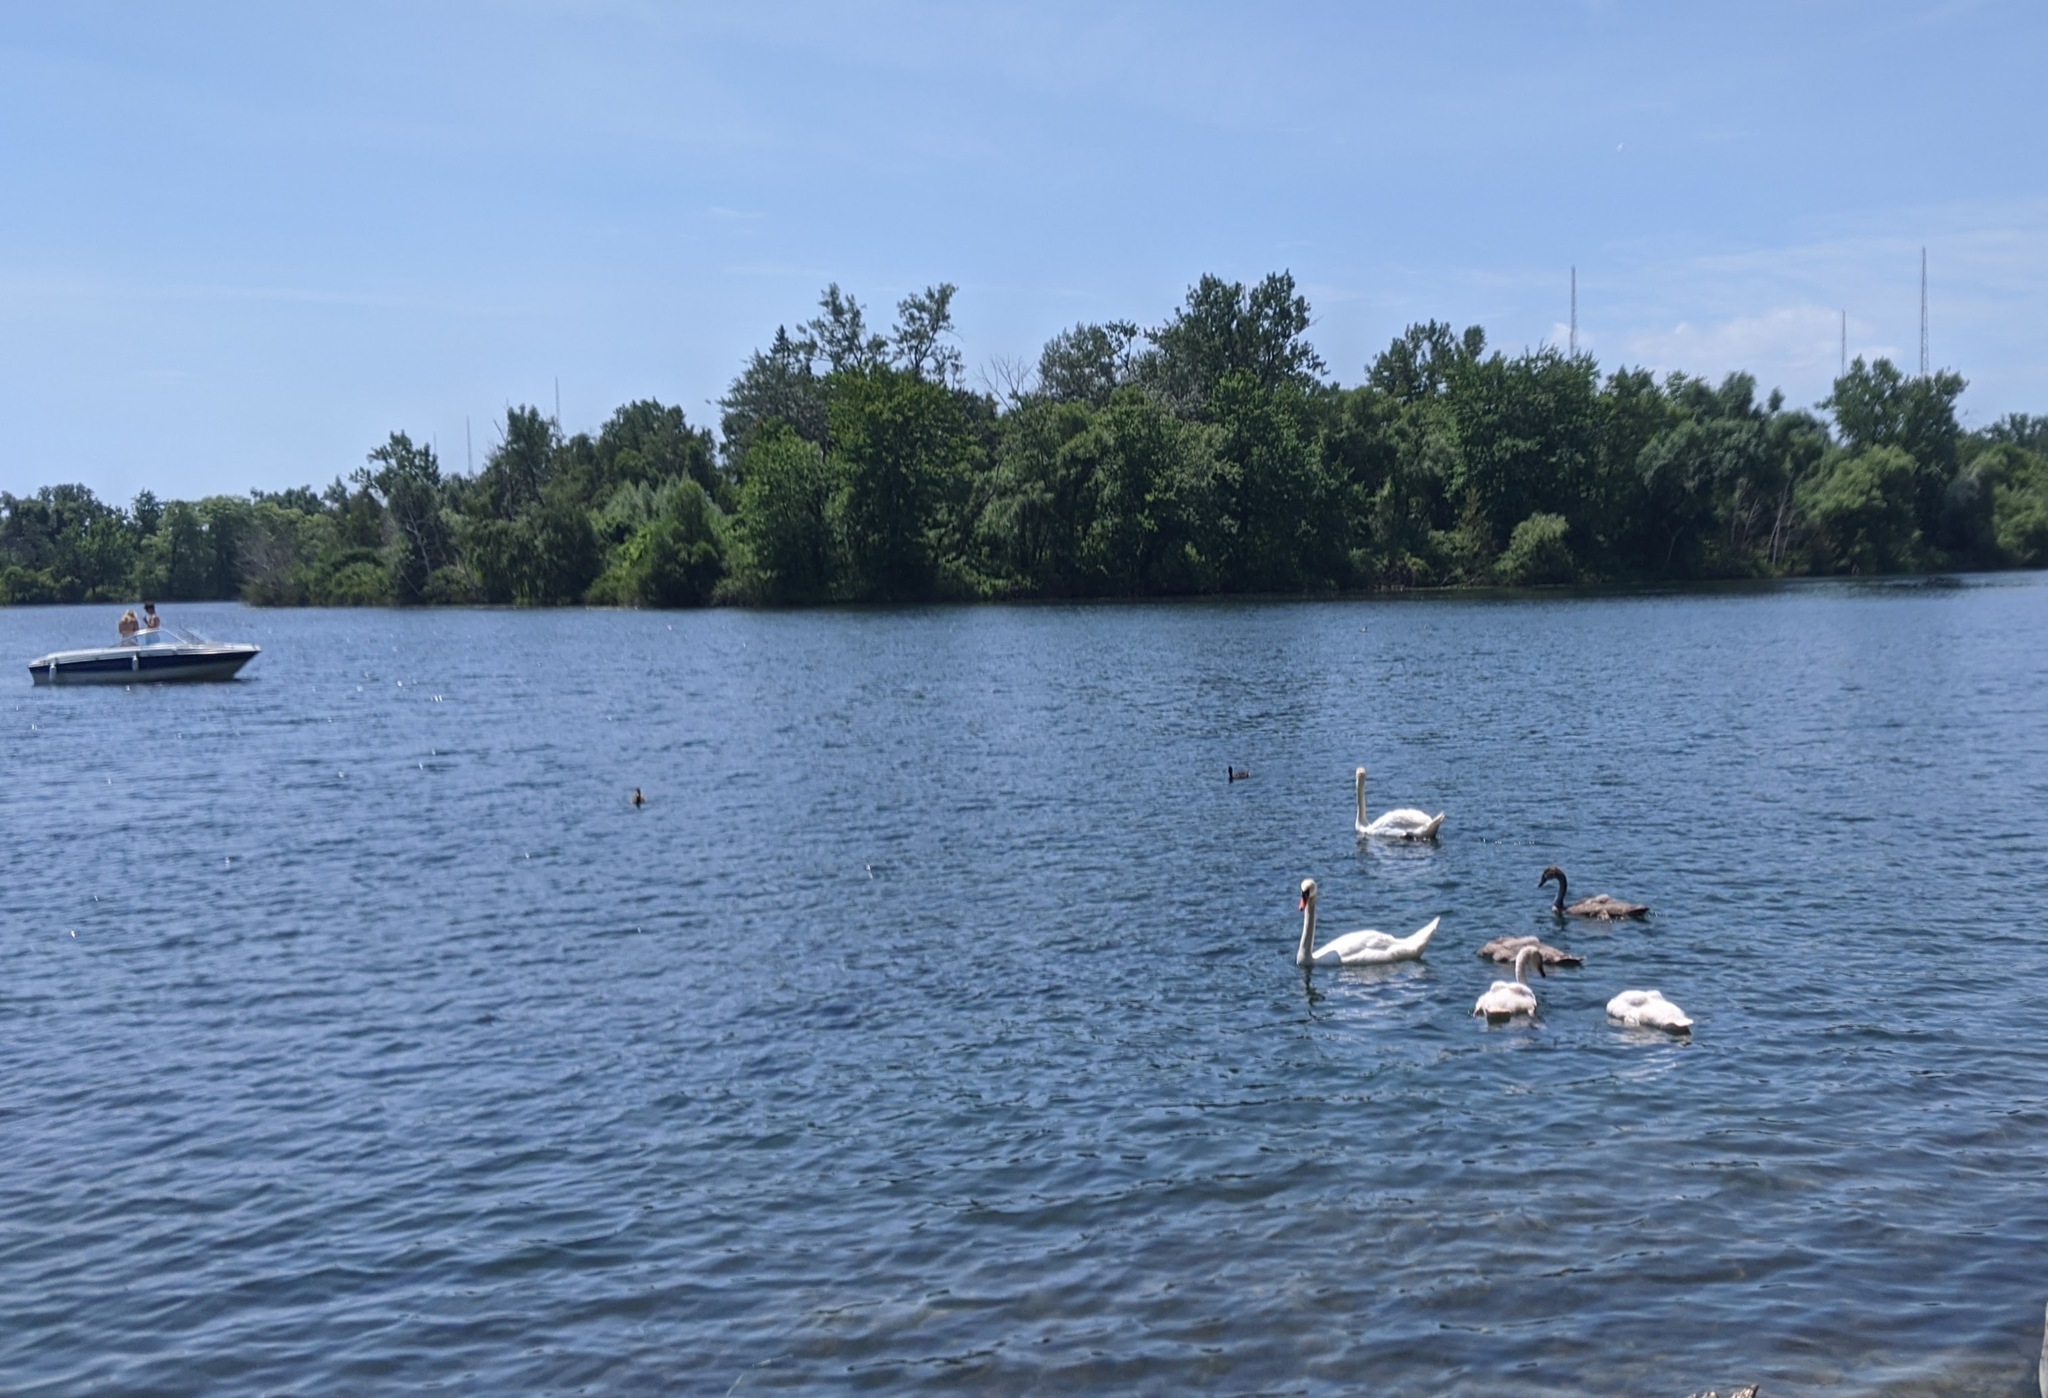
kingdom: Animalia
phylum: Chordata
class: Aves
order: Anseriformes
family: Anatidae
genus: Cygnus
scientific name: Cygnus olor
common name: Mute swan
